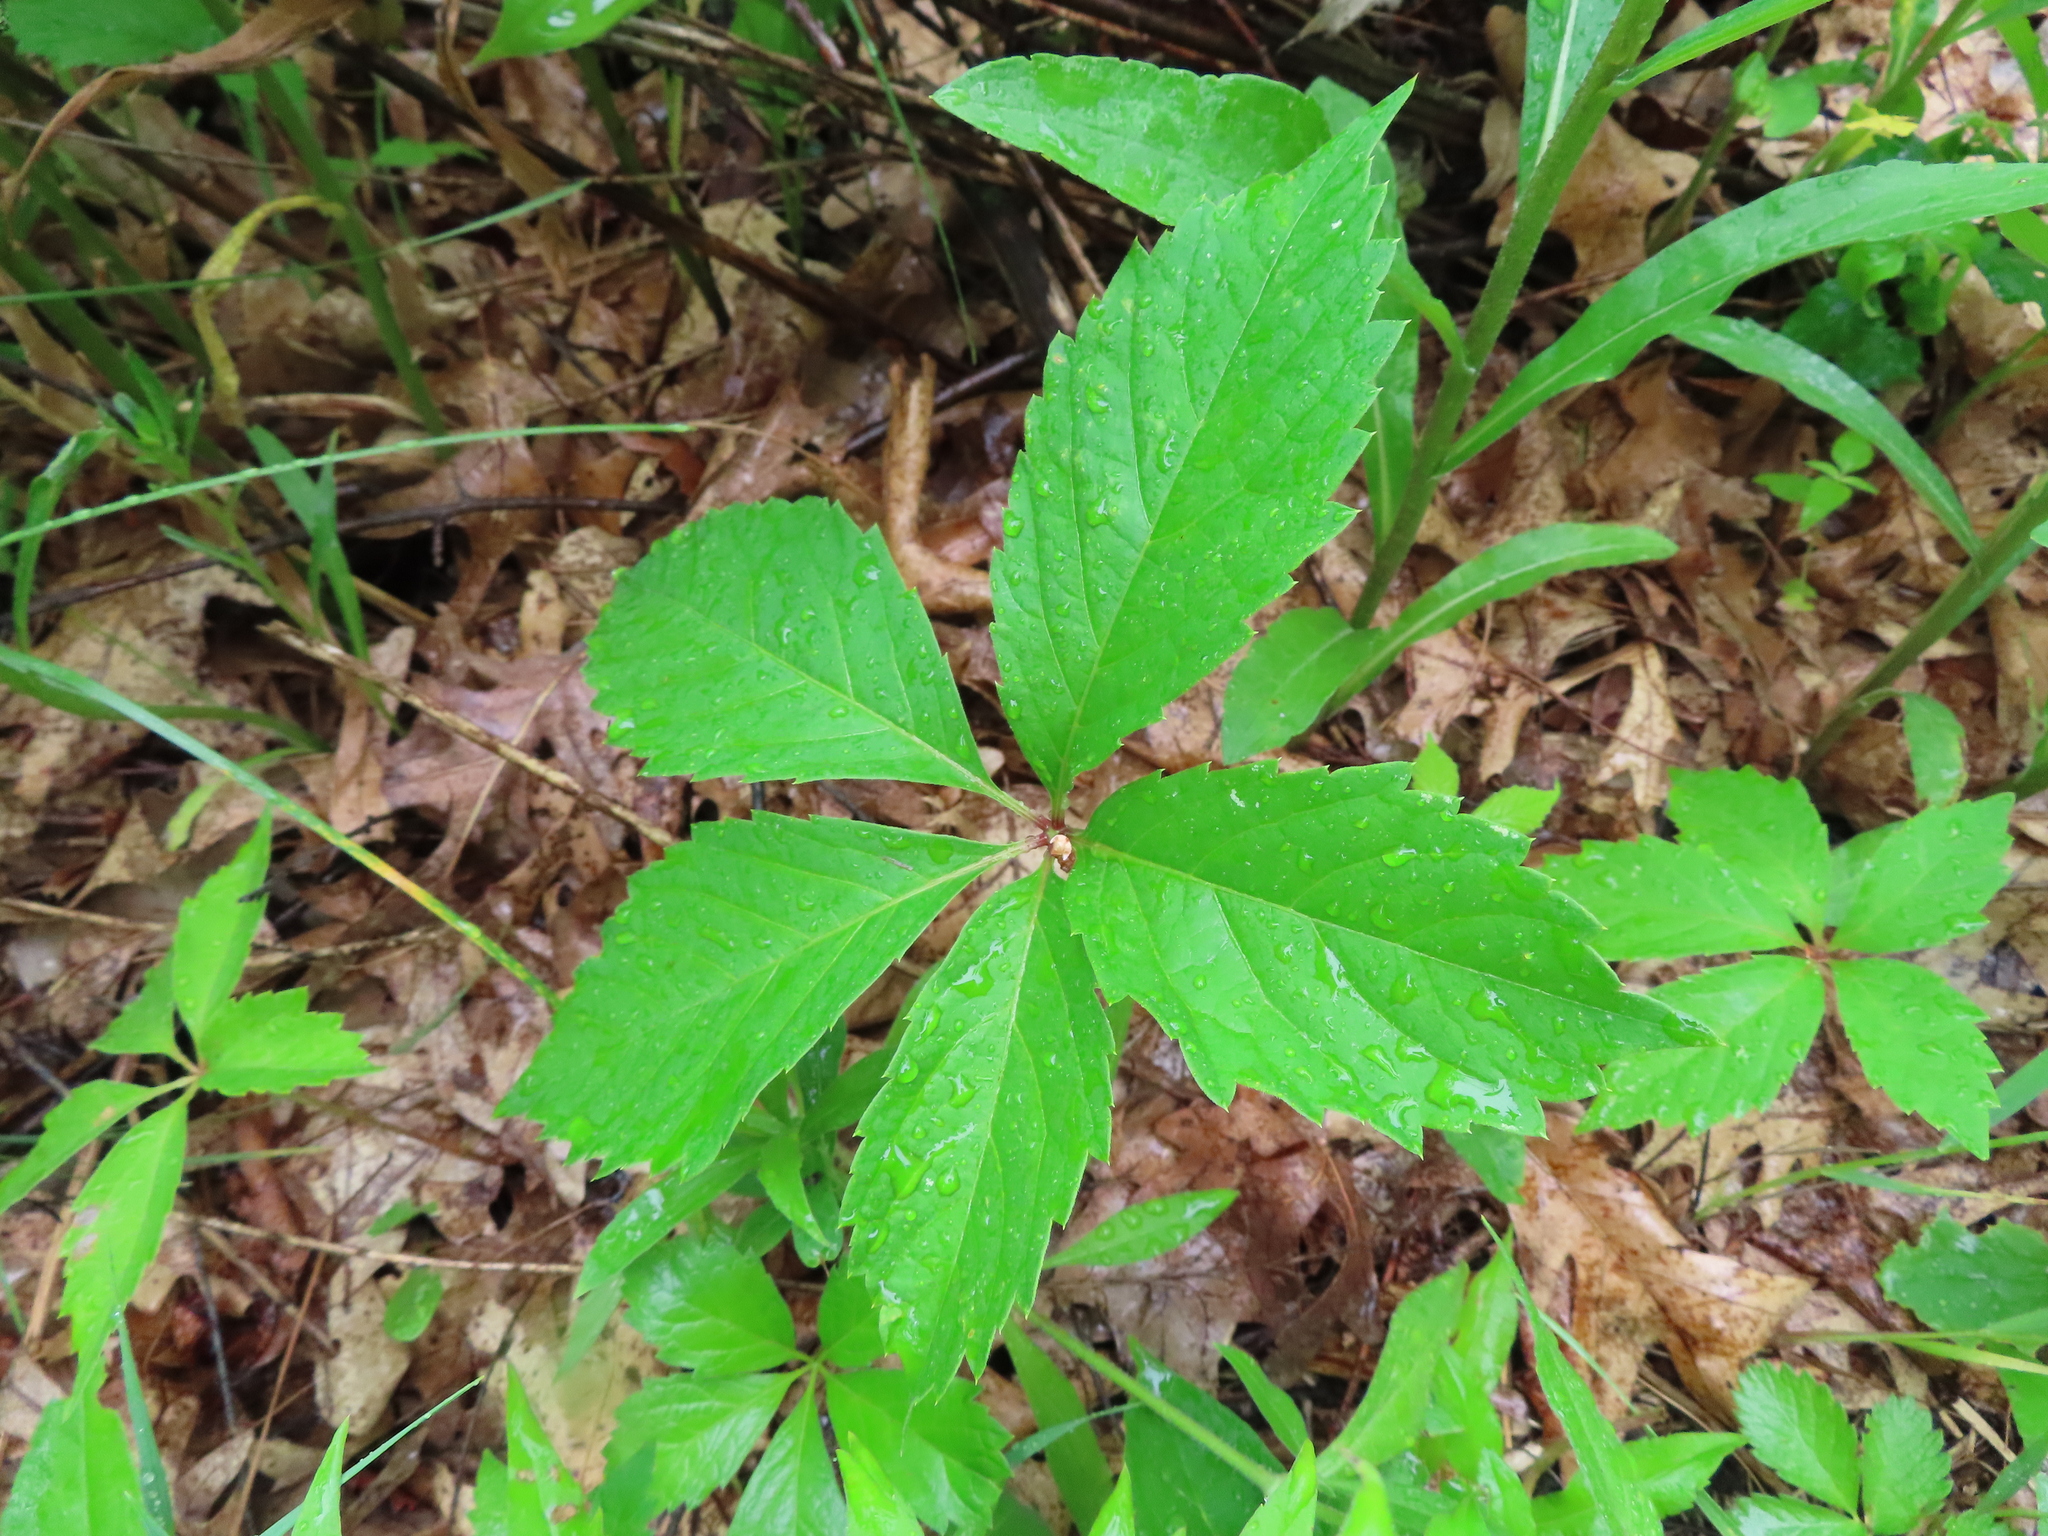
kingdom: Plantae
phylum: Tracheophyta
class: Magnoliopsida
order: Vitales
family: Vitaceae
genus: Parthenocissus
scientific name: Parthenocissus inserta
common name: False virginia-creeper
